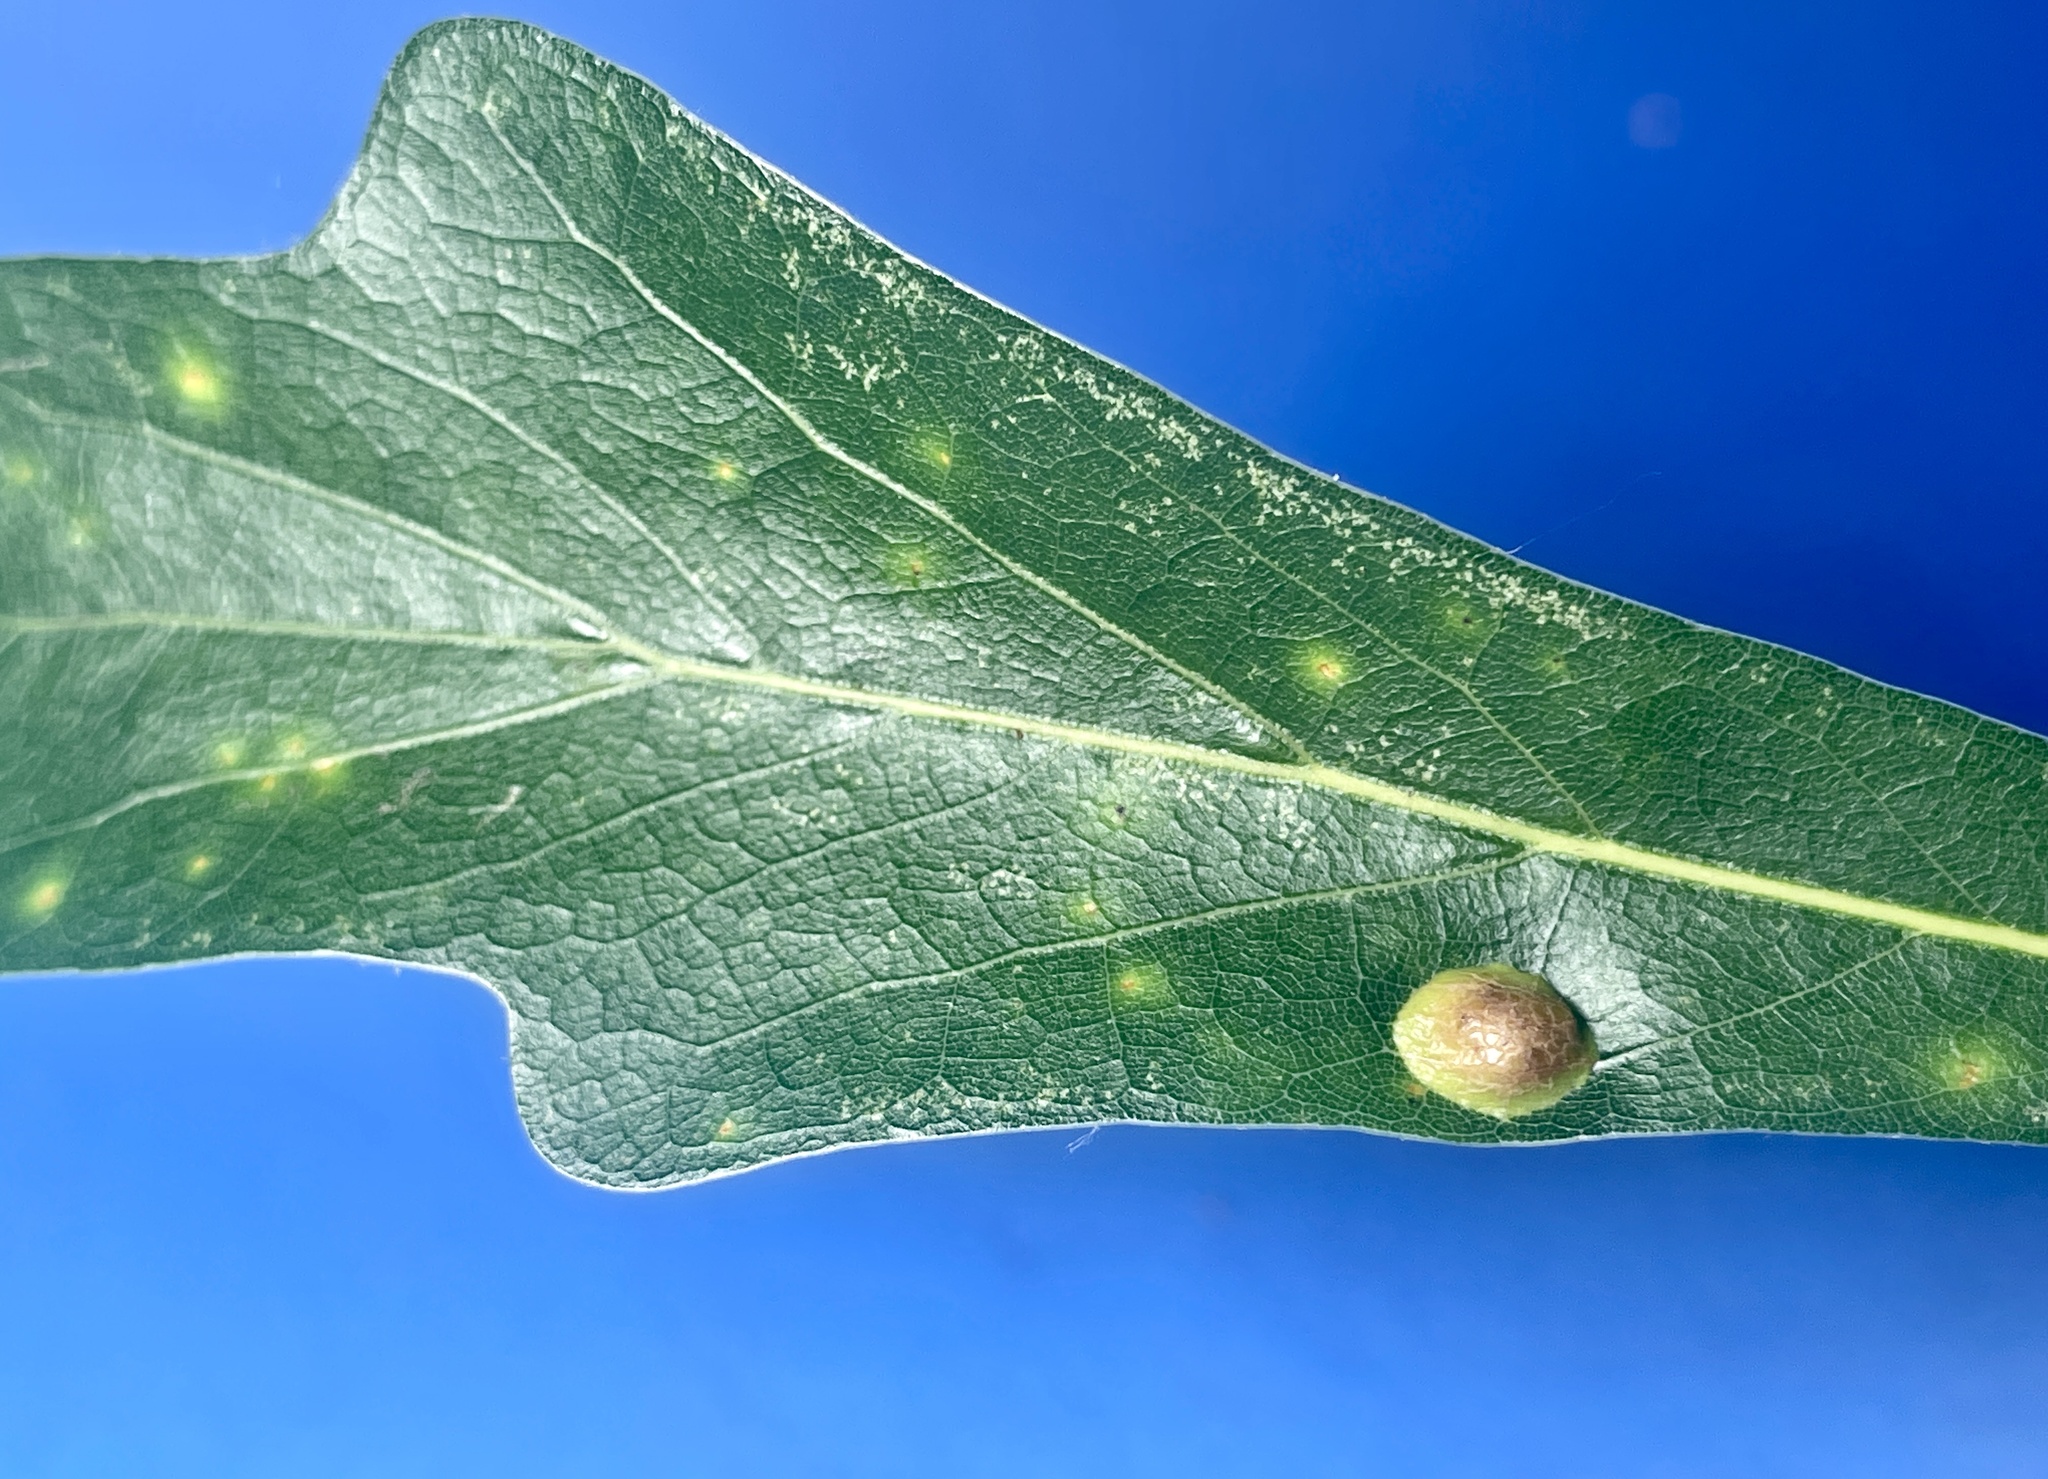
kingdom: Animalia
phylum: Arthropoda
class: Insecta
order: Diptera
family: Cecidomyiidae
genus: Polystepha
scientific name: Polystepha pilulae
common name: Oak leaf gall midge
